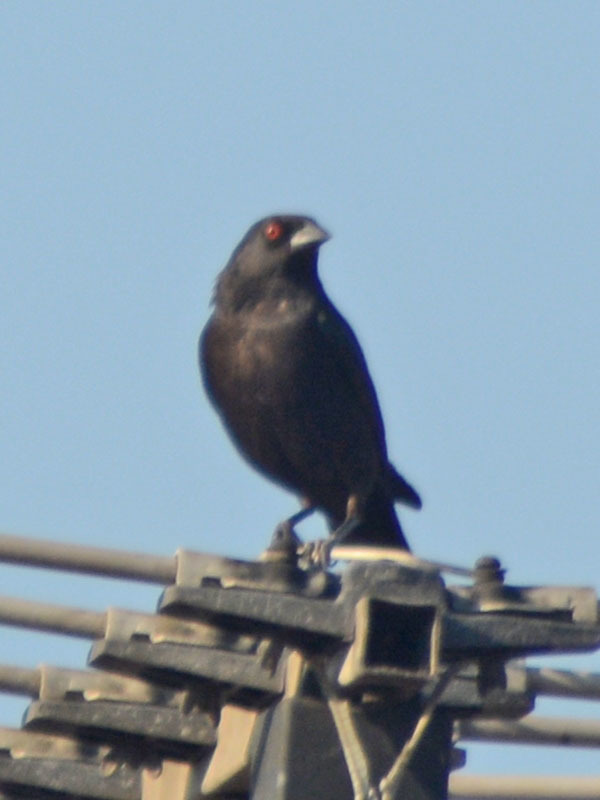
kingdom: Animalia
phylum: Chordata
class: Aves
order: Passeriformes
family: Icteridae
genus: Molothrus
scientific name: Molothrus aeneus
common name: Bronzed cowbird
